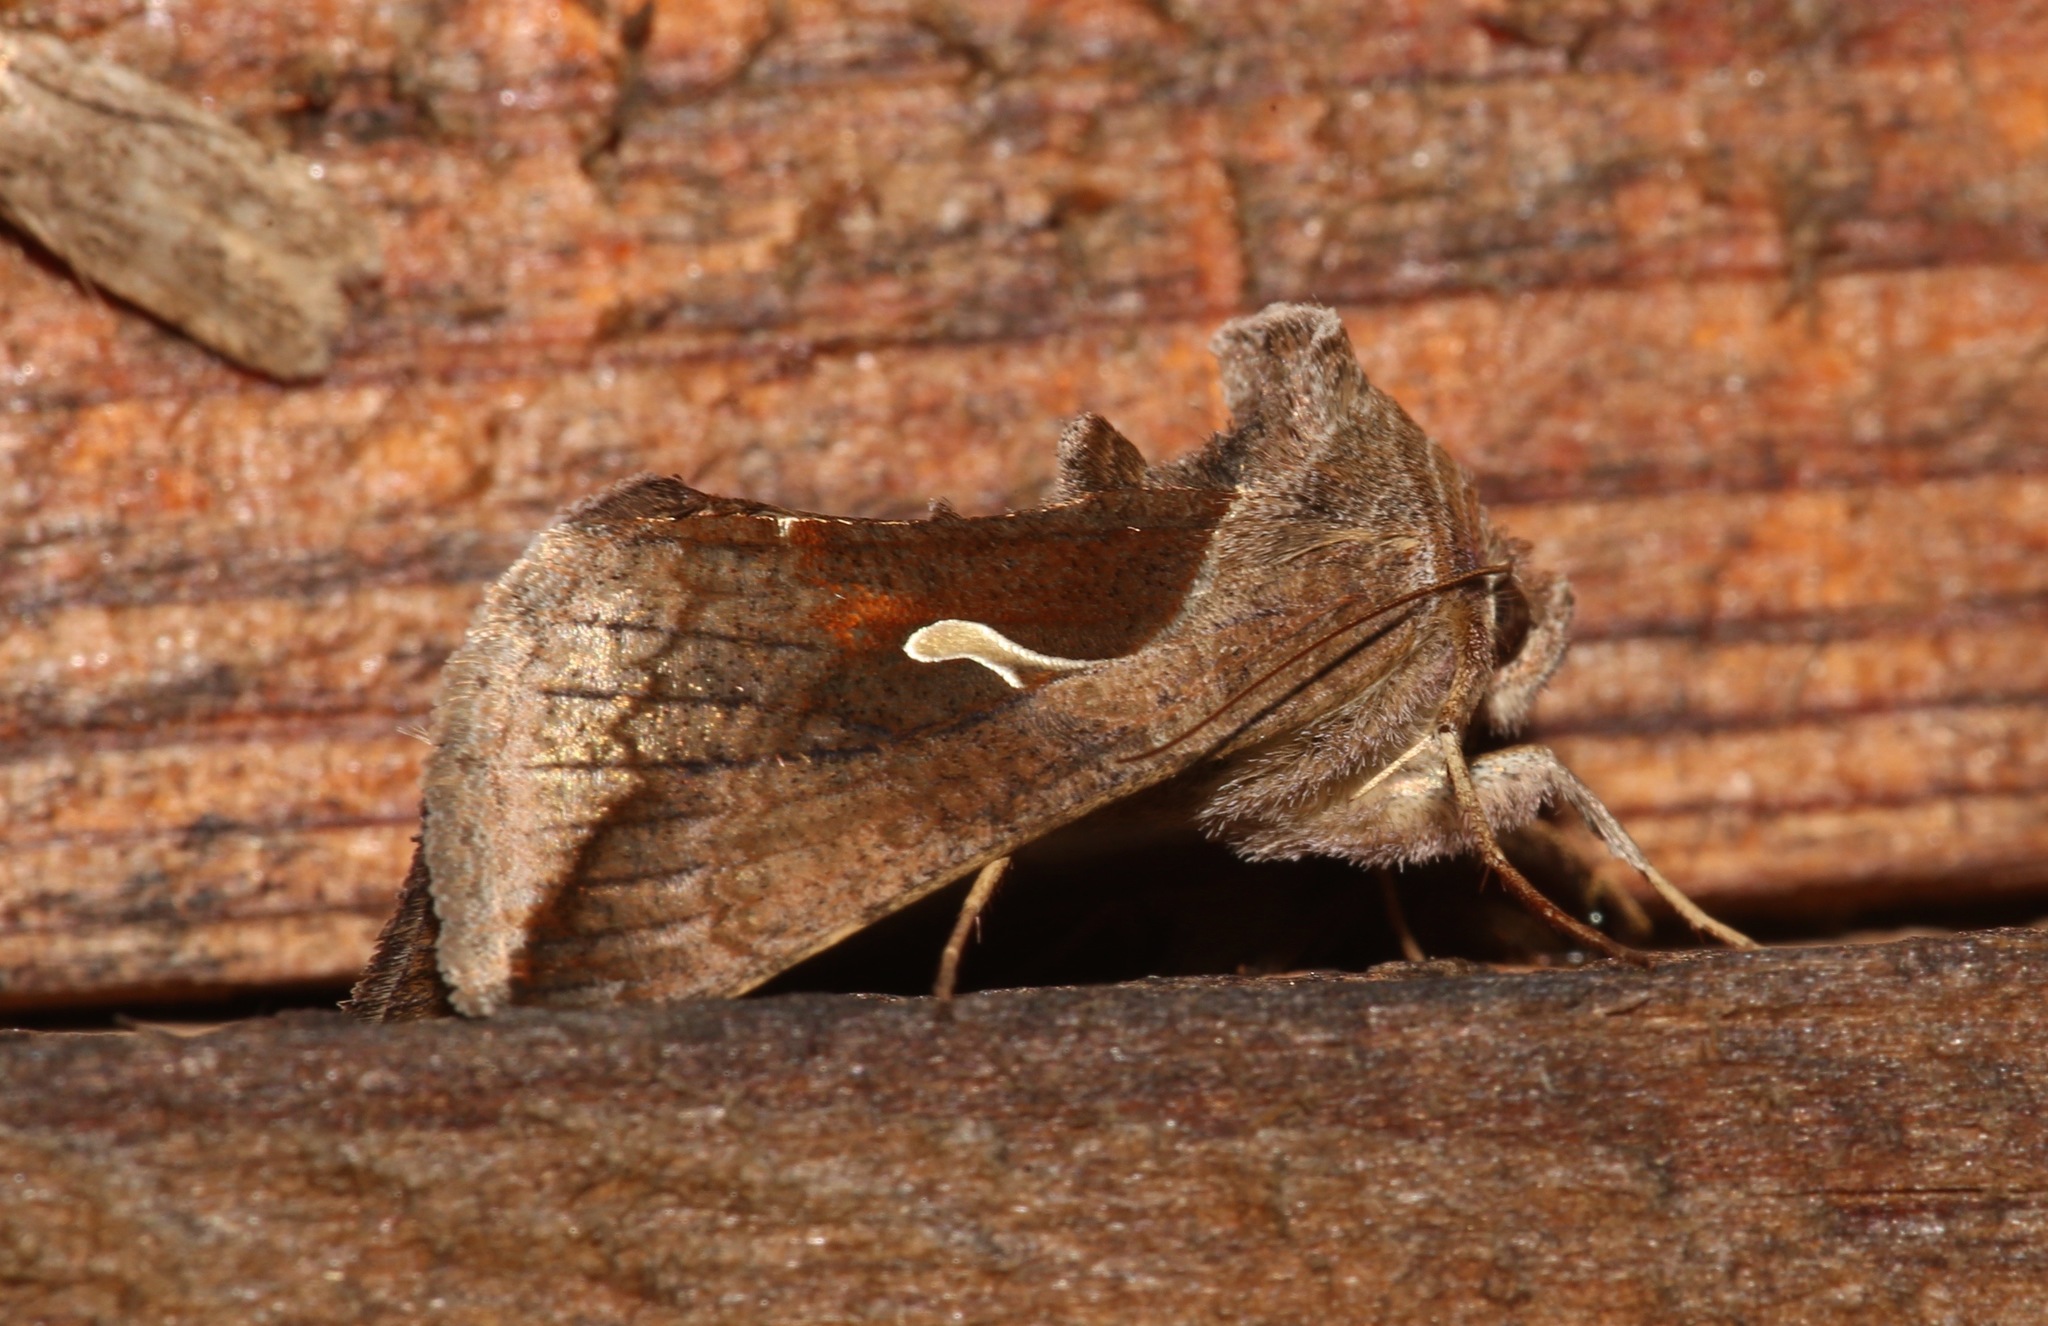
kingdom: Animalia
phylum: Arthropoda
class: Insecta
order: Lepidoptera
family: Noctuidae
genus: Anagrapha
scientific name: Anagrapha falcifera
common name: Celery looper
